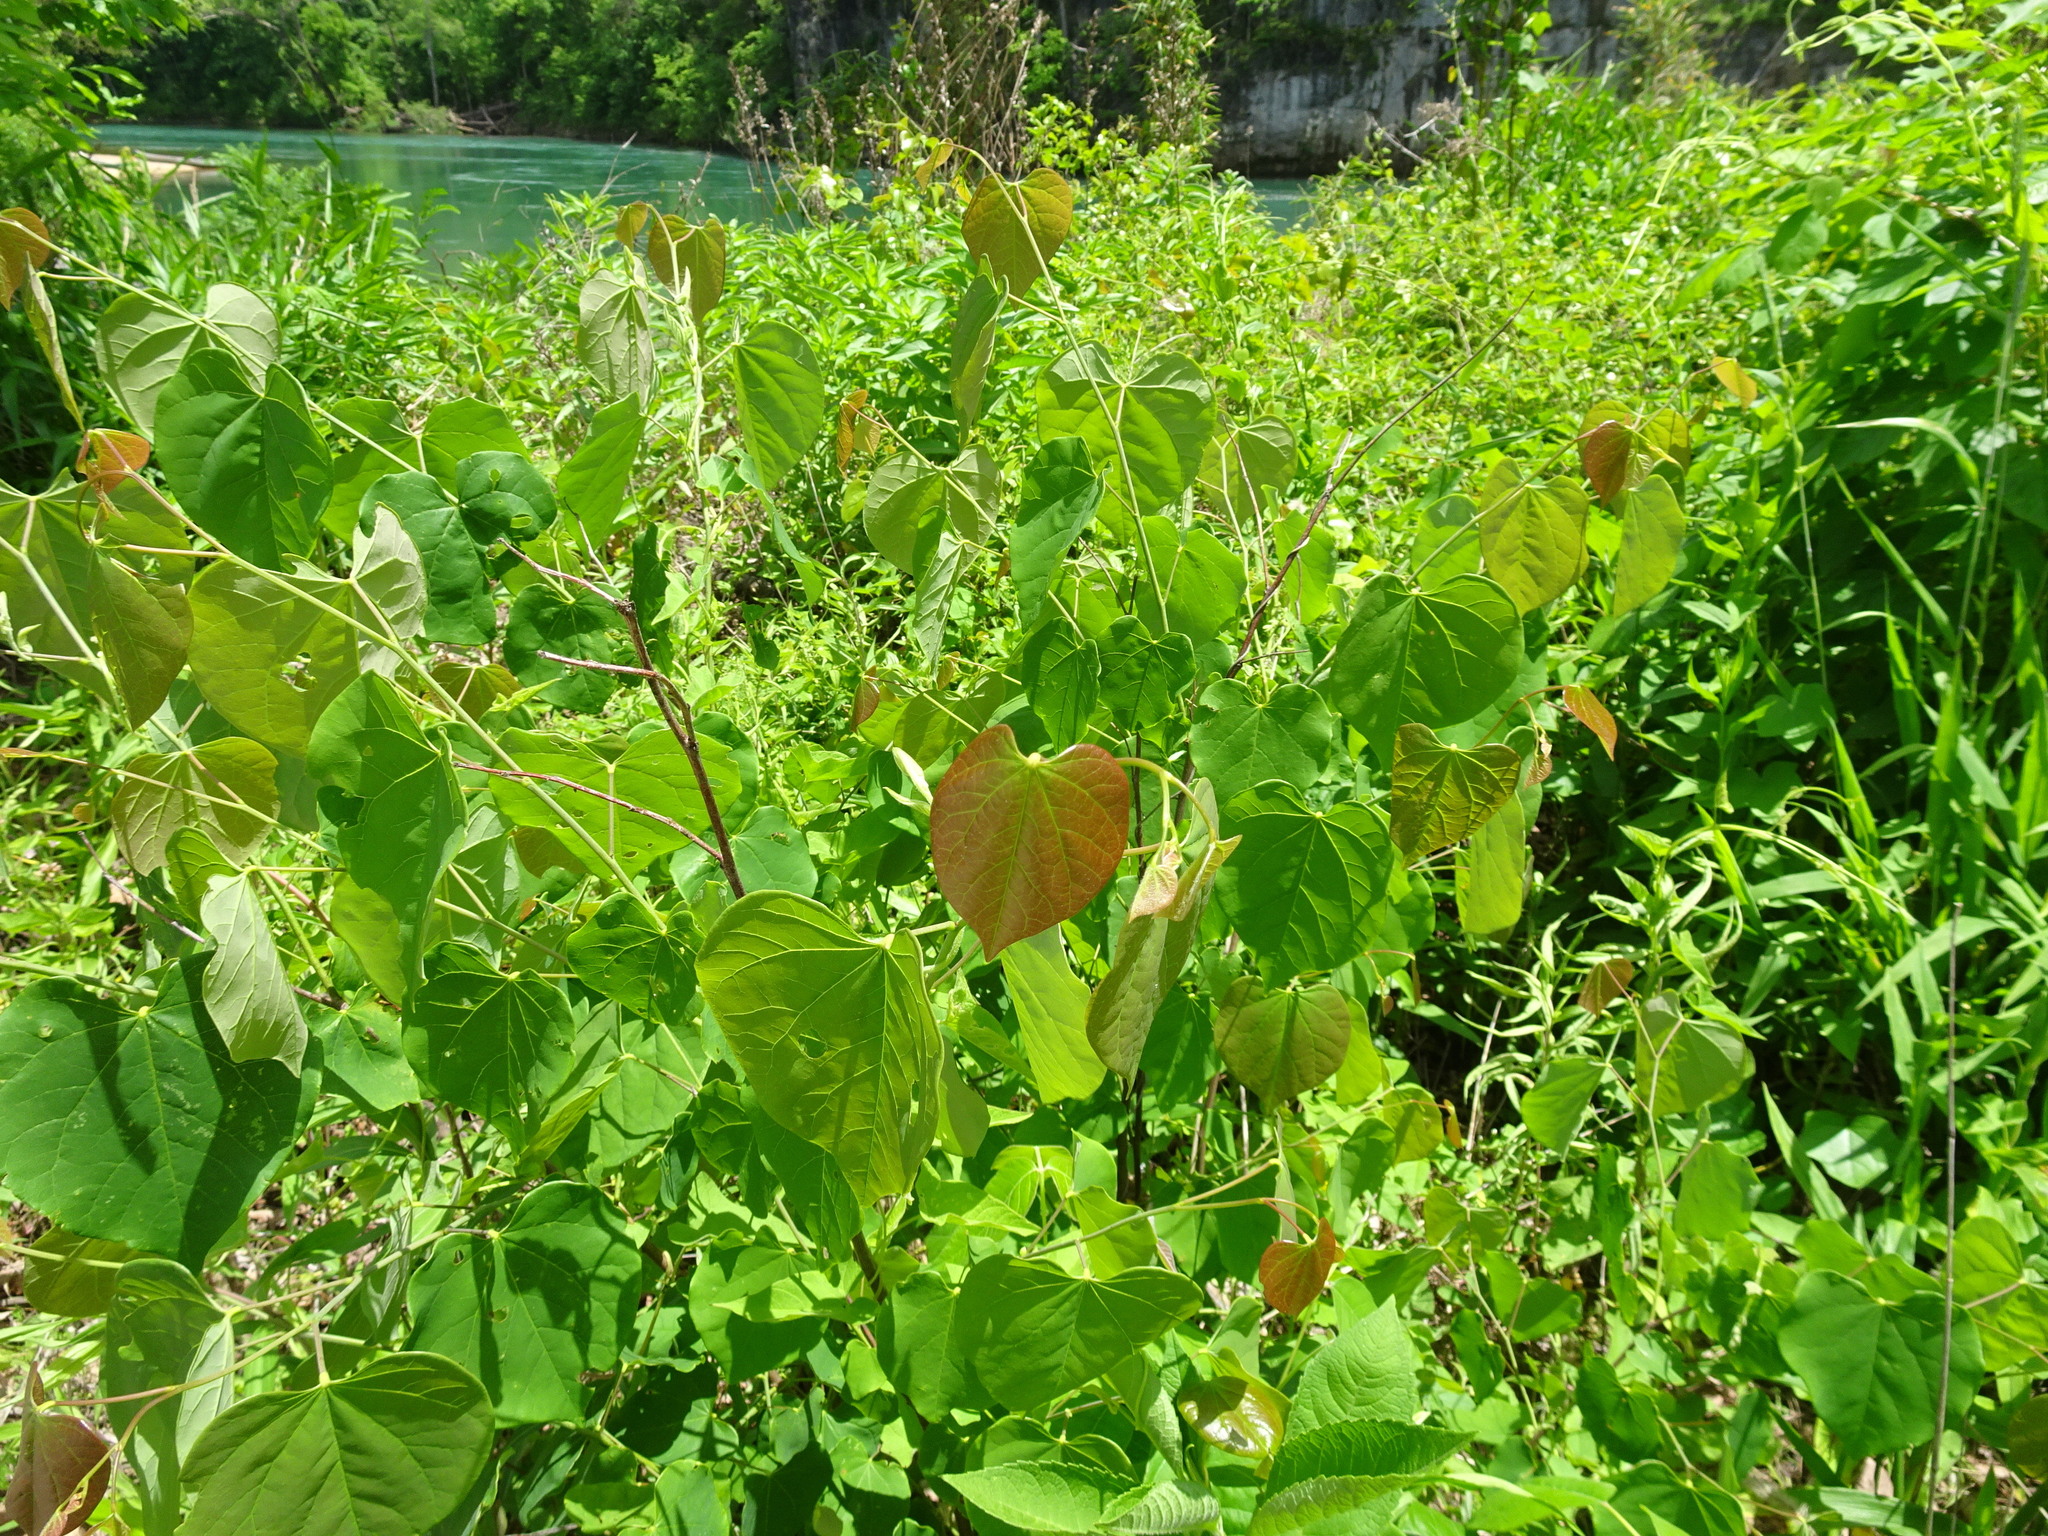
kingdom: Plantae
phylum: Tracheophyta
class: Magnoliopsida
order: Fabales
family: Fabaceae
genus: Cercis
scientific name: Cercis canadensis
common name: Eastern redbud
